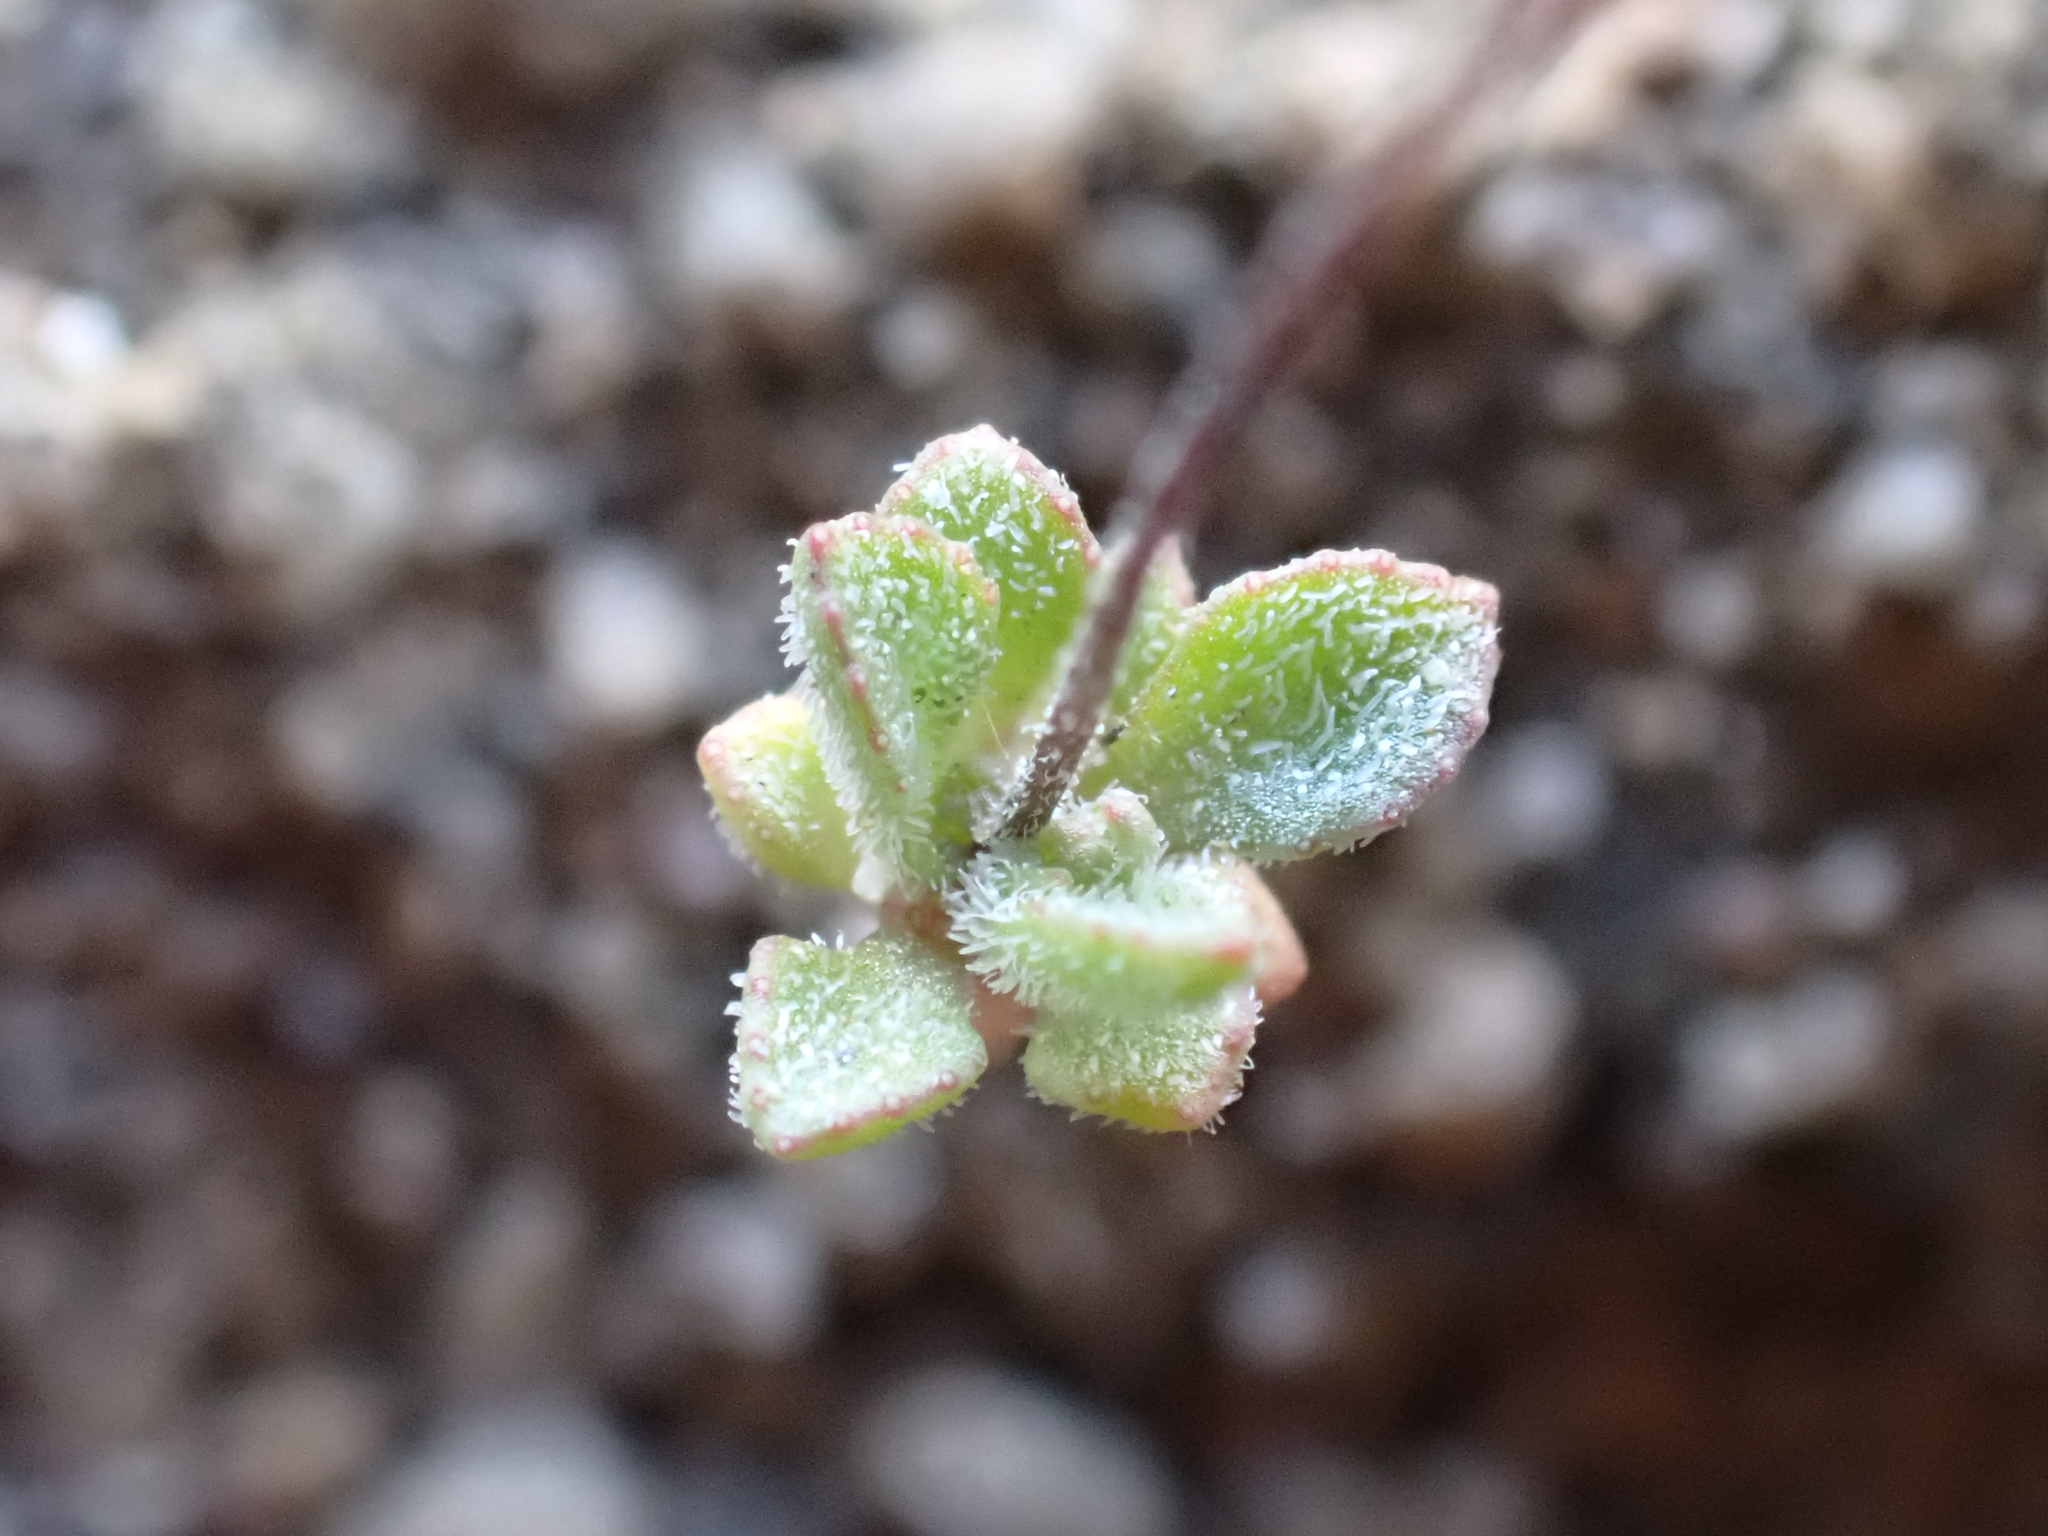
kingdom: Plantae
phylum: Tracheophyta
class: Magnoliopsida
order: Asterales
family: Campanulaceae
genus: Nemacladus
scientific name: Nemacladus breviflorus
